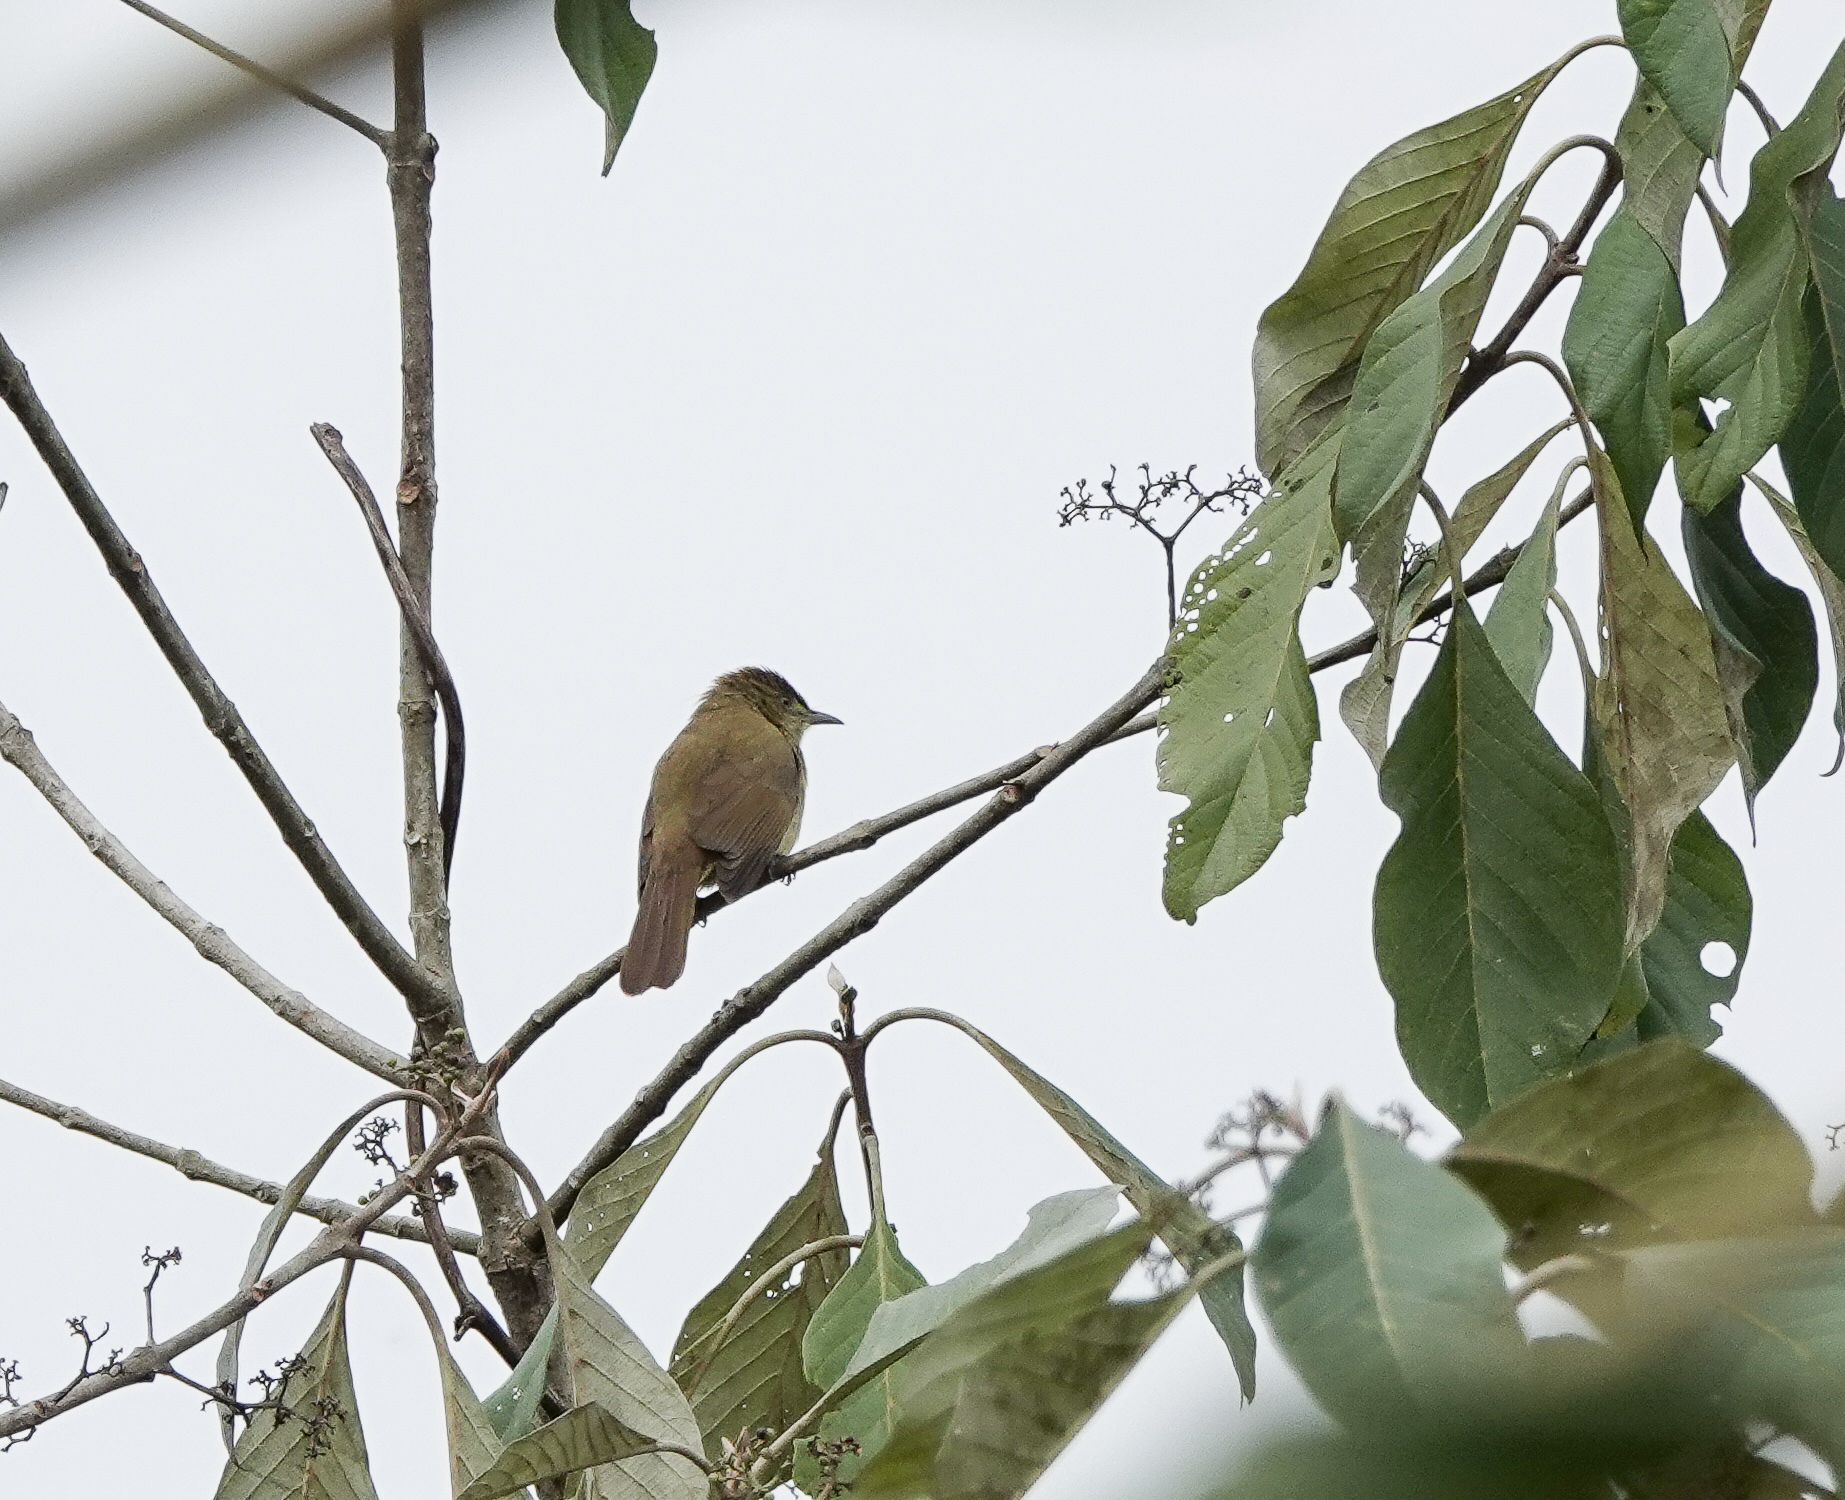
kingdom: Animalia
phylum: Chordata
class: Aves
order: Passeriformes
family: Pycnonotidae
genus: Iole
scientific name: Iole virescens
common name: Olive bulbul
